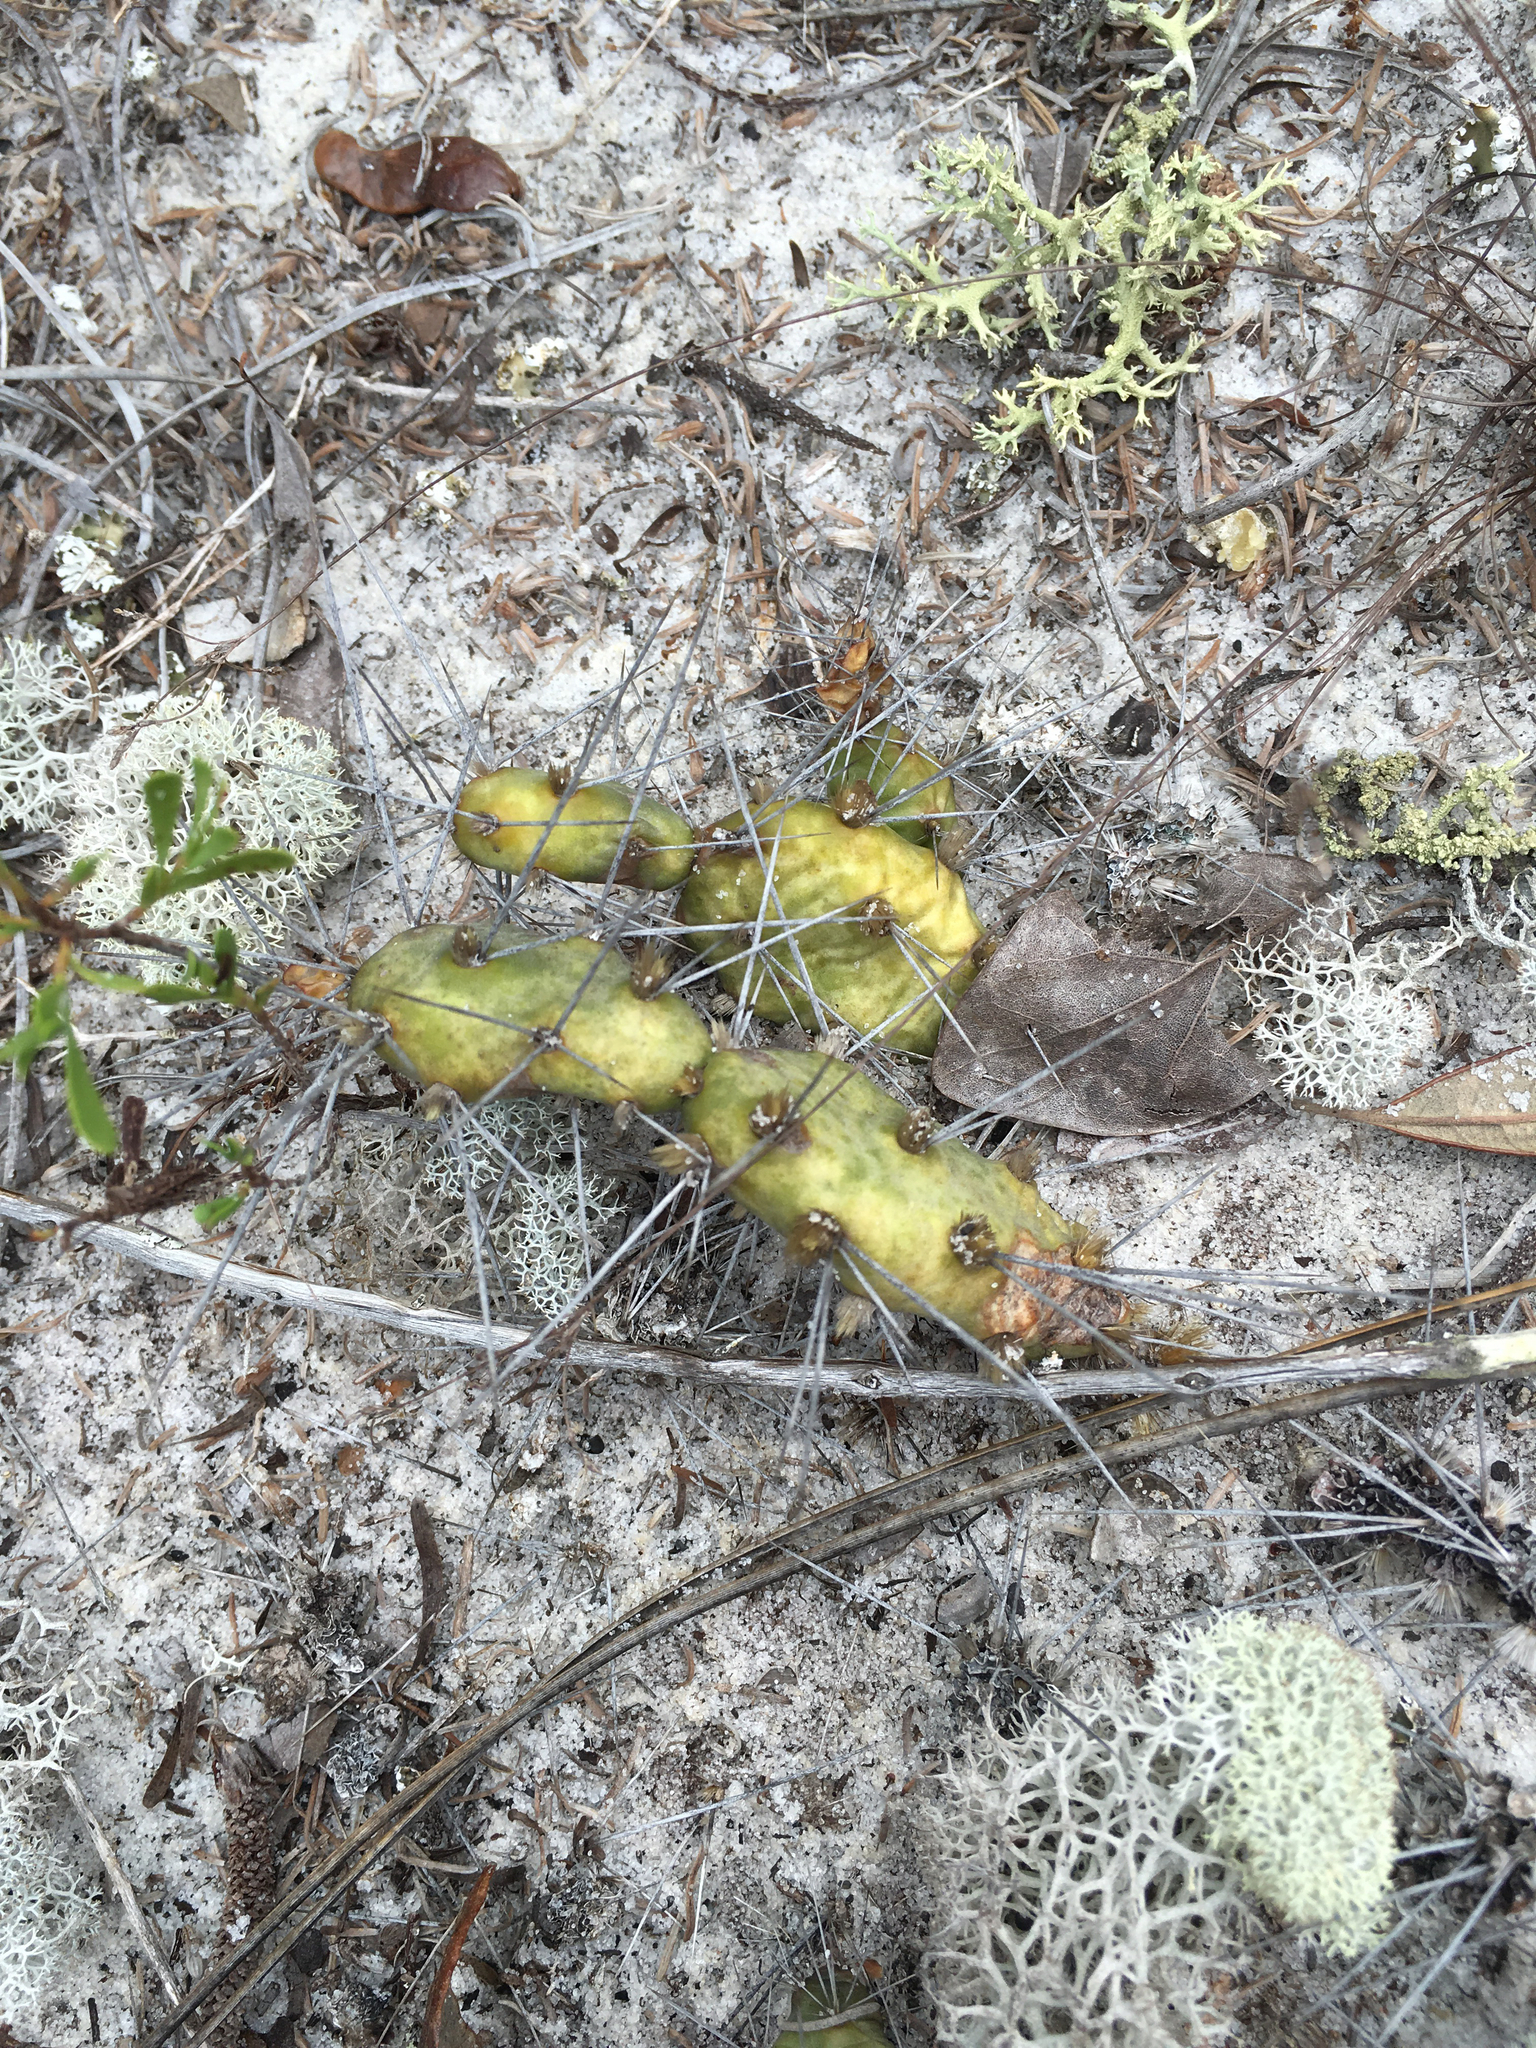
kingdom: Plantae
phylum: Tracheophyta
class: Magnoliopsida
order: Caryophyllales
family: Cactaceae
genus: Opuntia
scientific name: Opuntia drummondii
